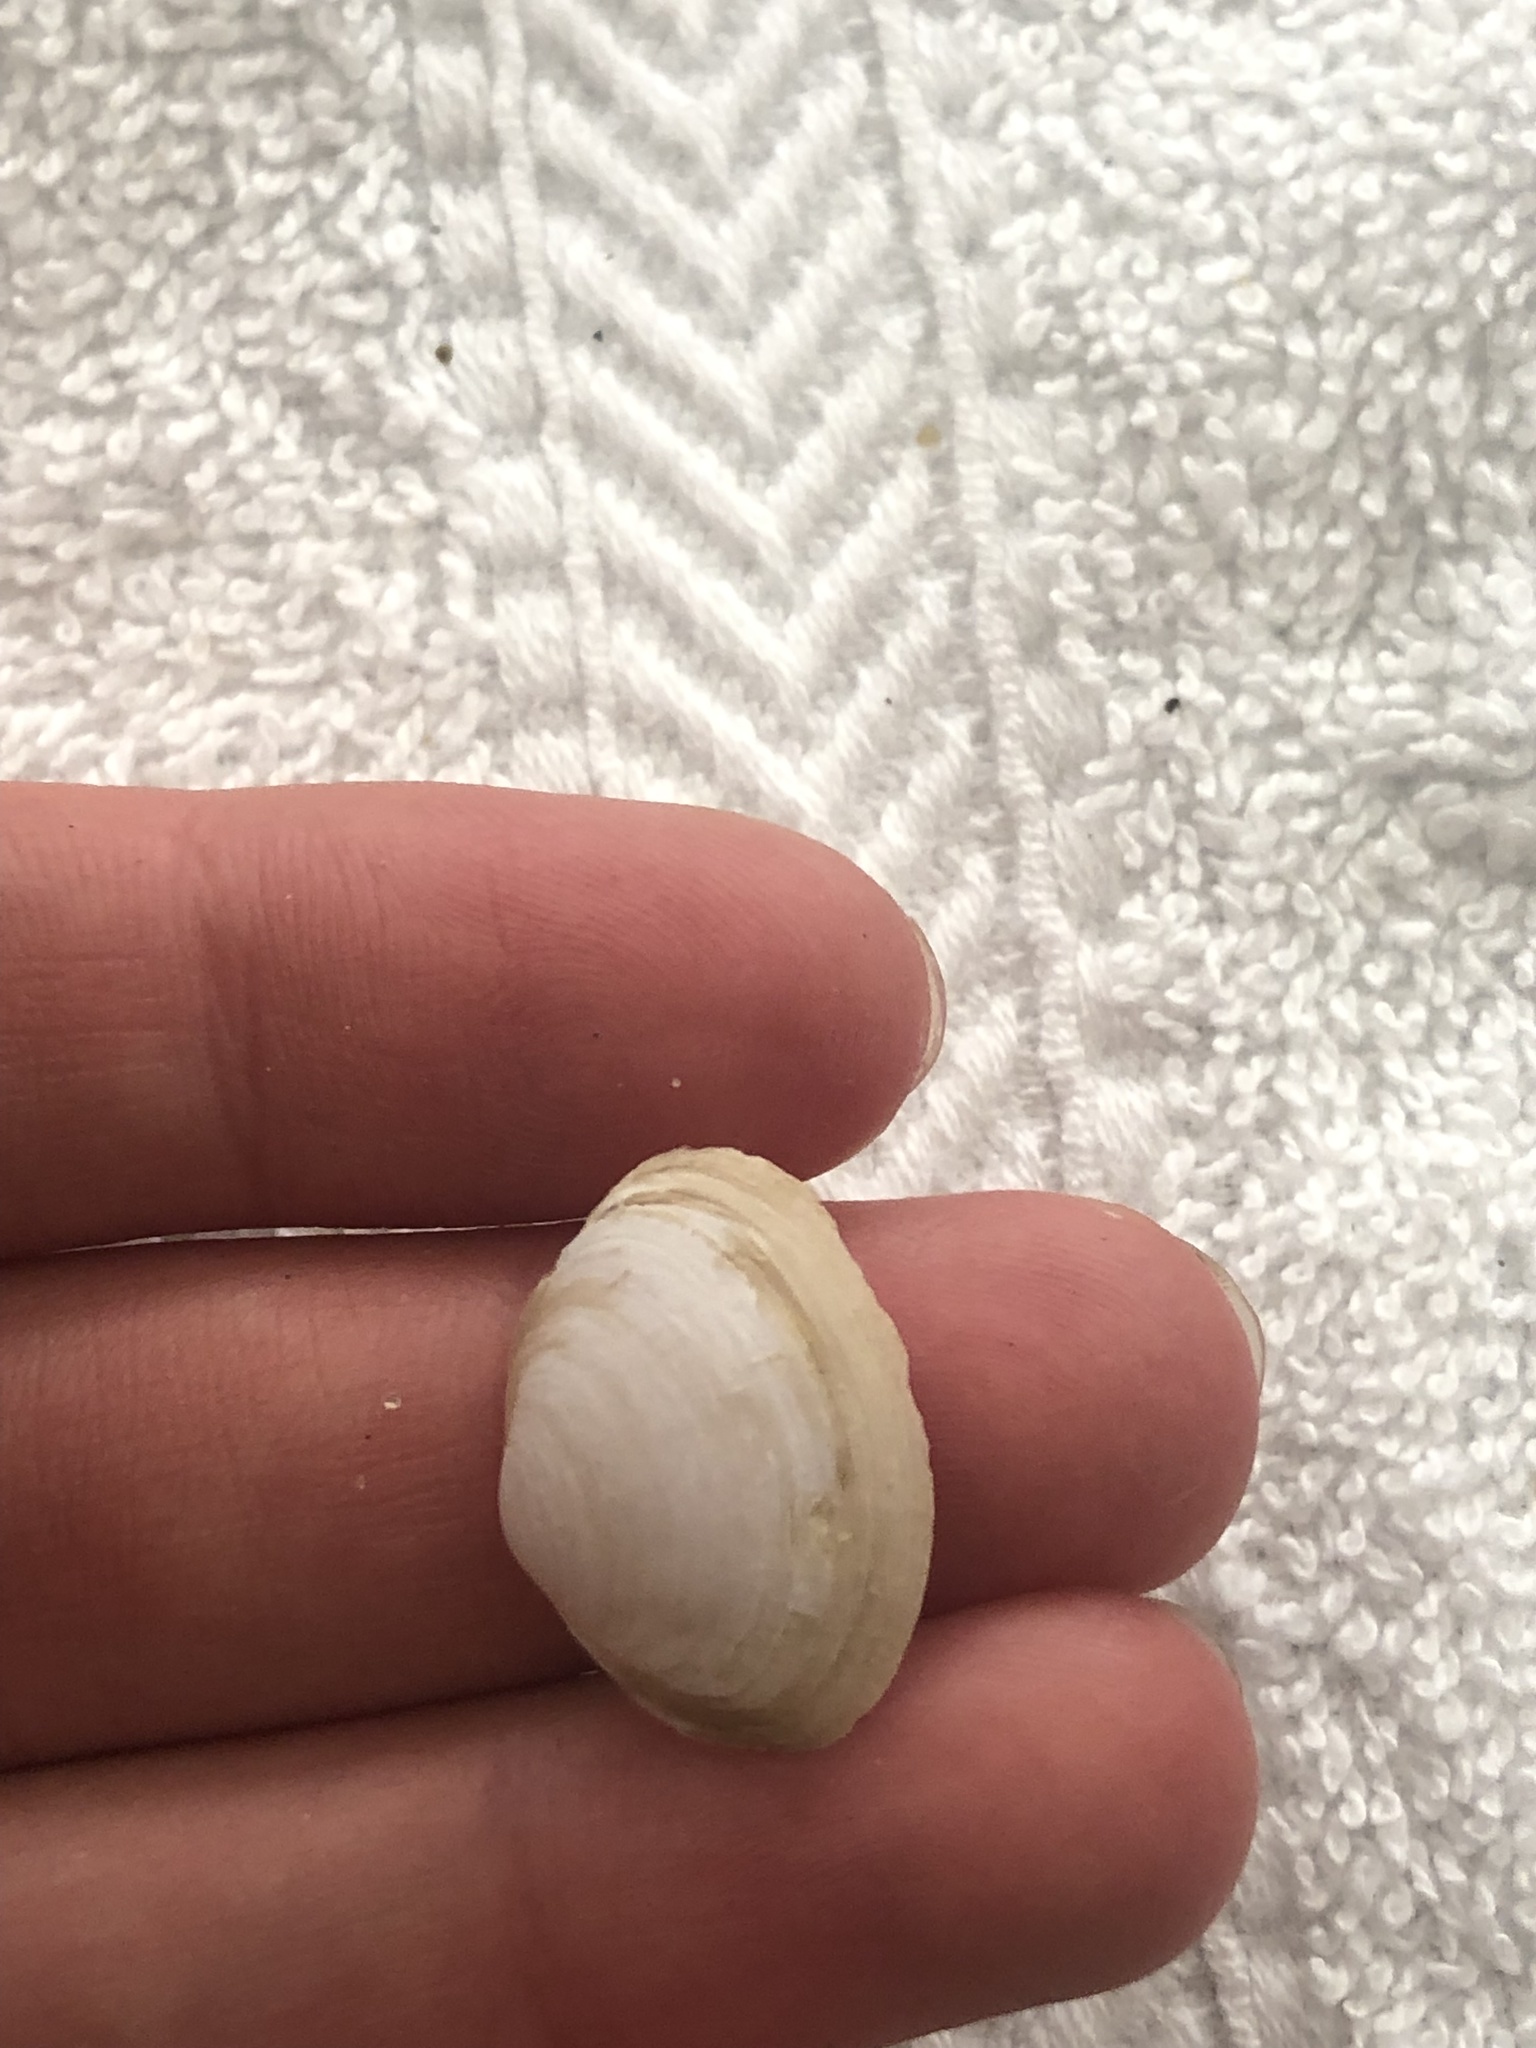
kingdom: Animalia
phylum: Mollusca
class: Bivalvia
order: Myida
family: Myidae
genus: Cryptomya
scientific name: Cryptomya californica
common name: California softshell clam
